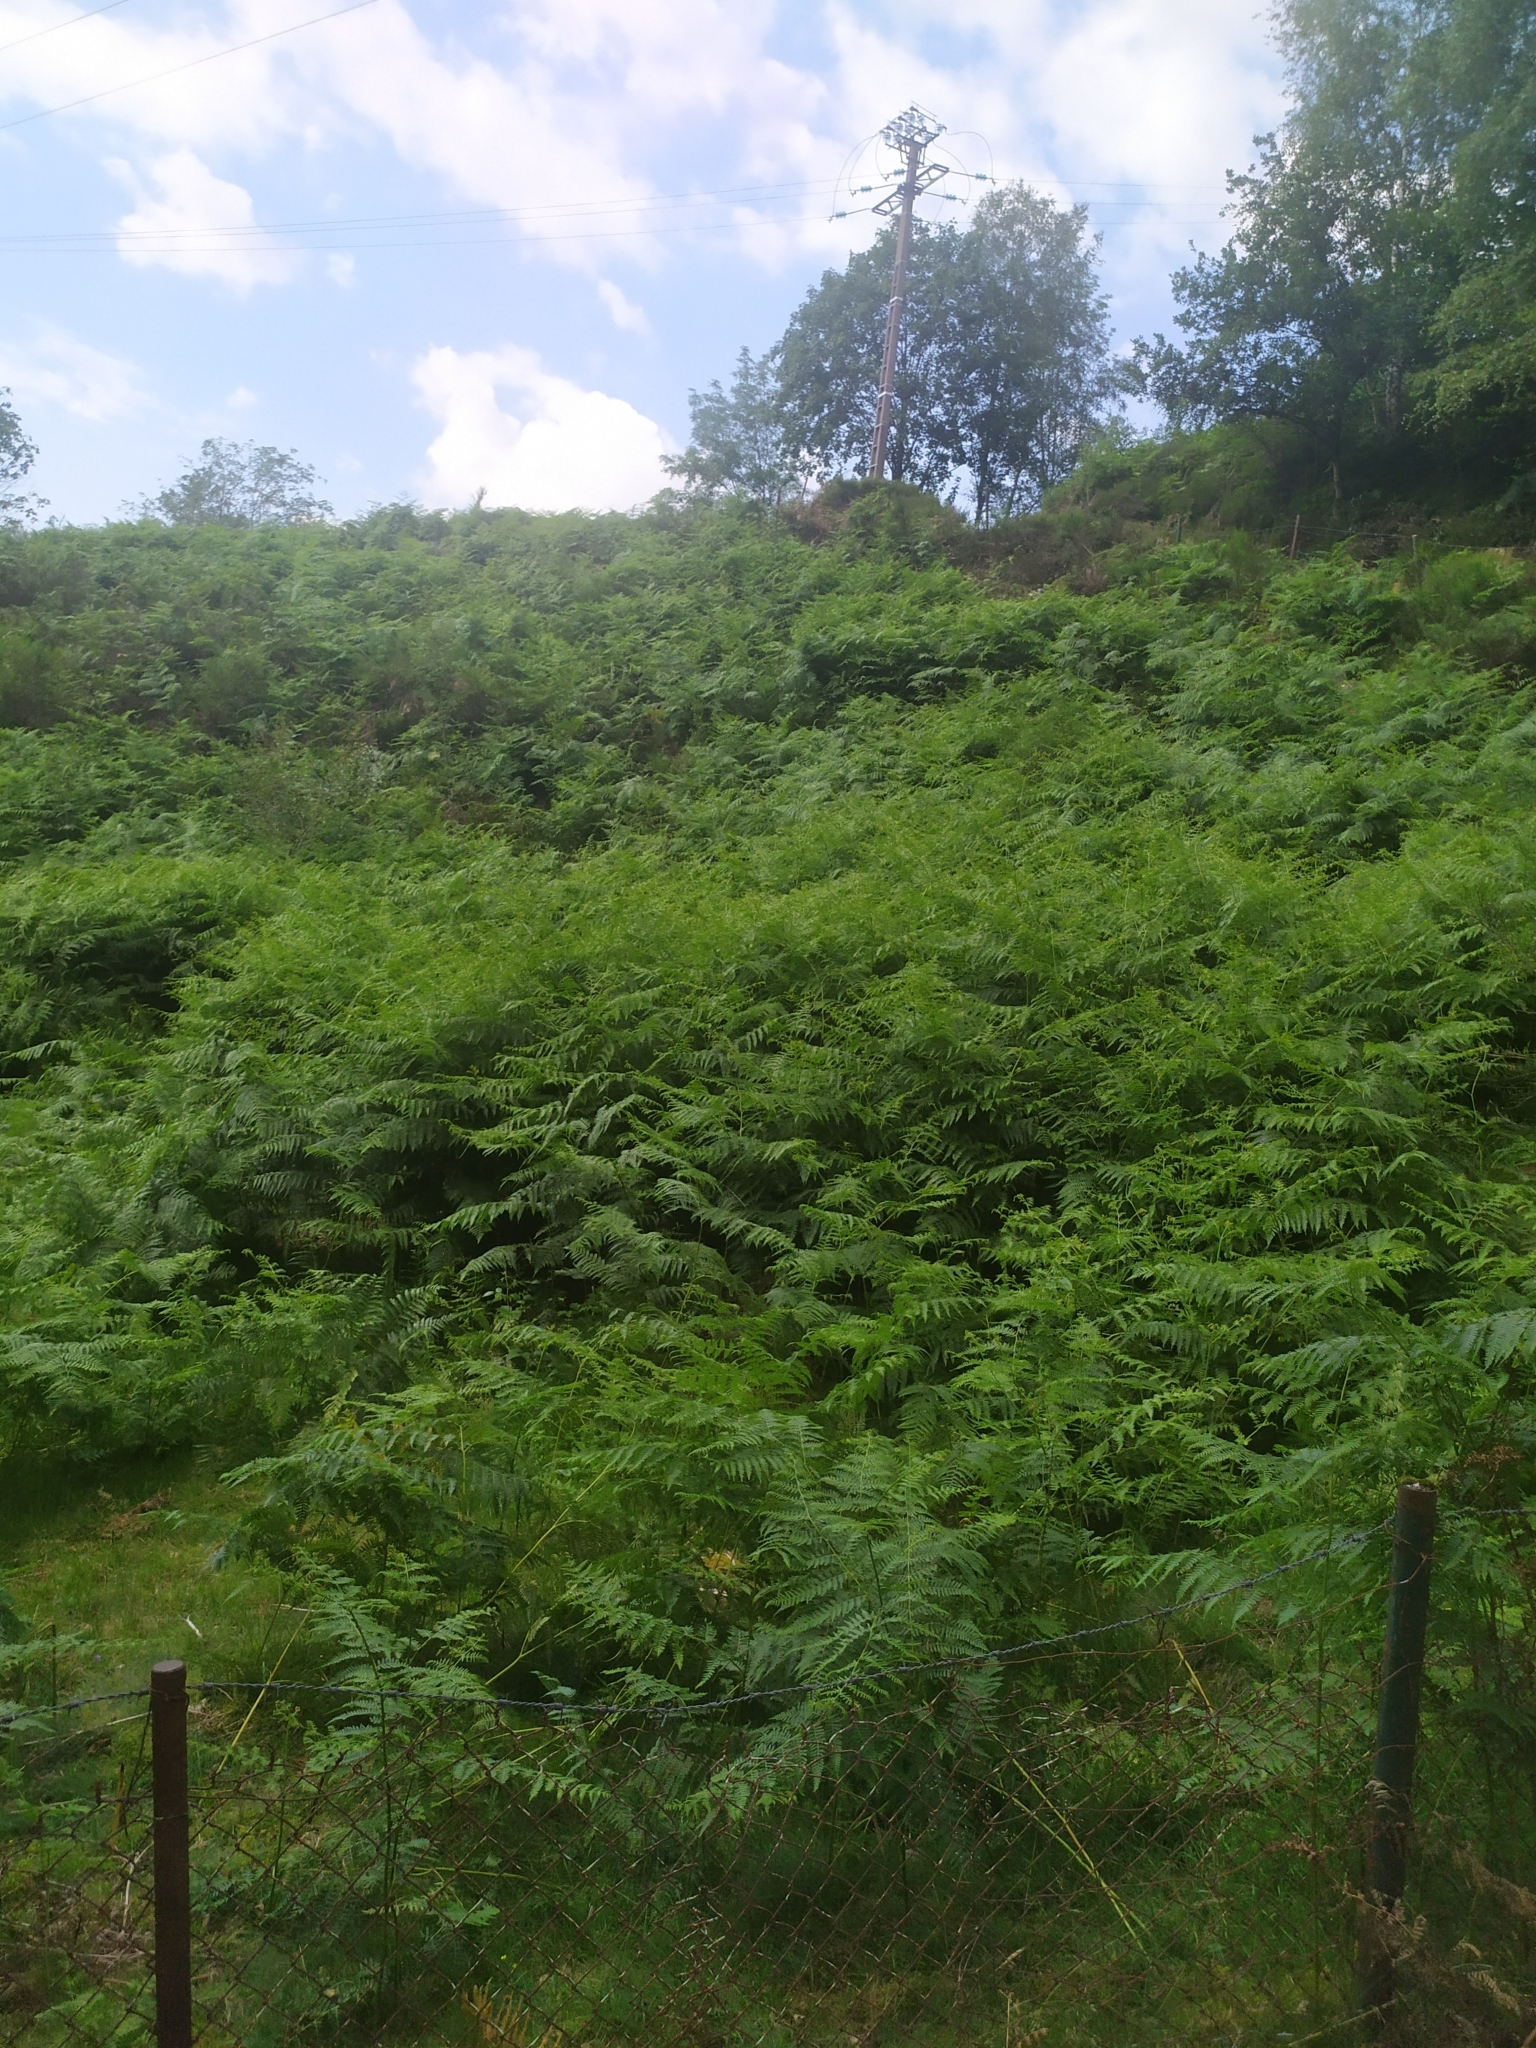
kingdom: Plantae
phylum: Tracheophyta
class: Polypodiopsida
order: Polypodiales
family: Dennstaedtiaceae
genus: Pteridium
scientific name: Pteridium aquilinum
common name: Bracken
